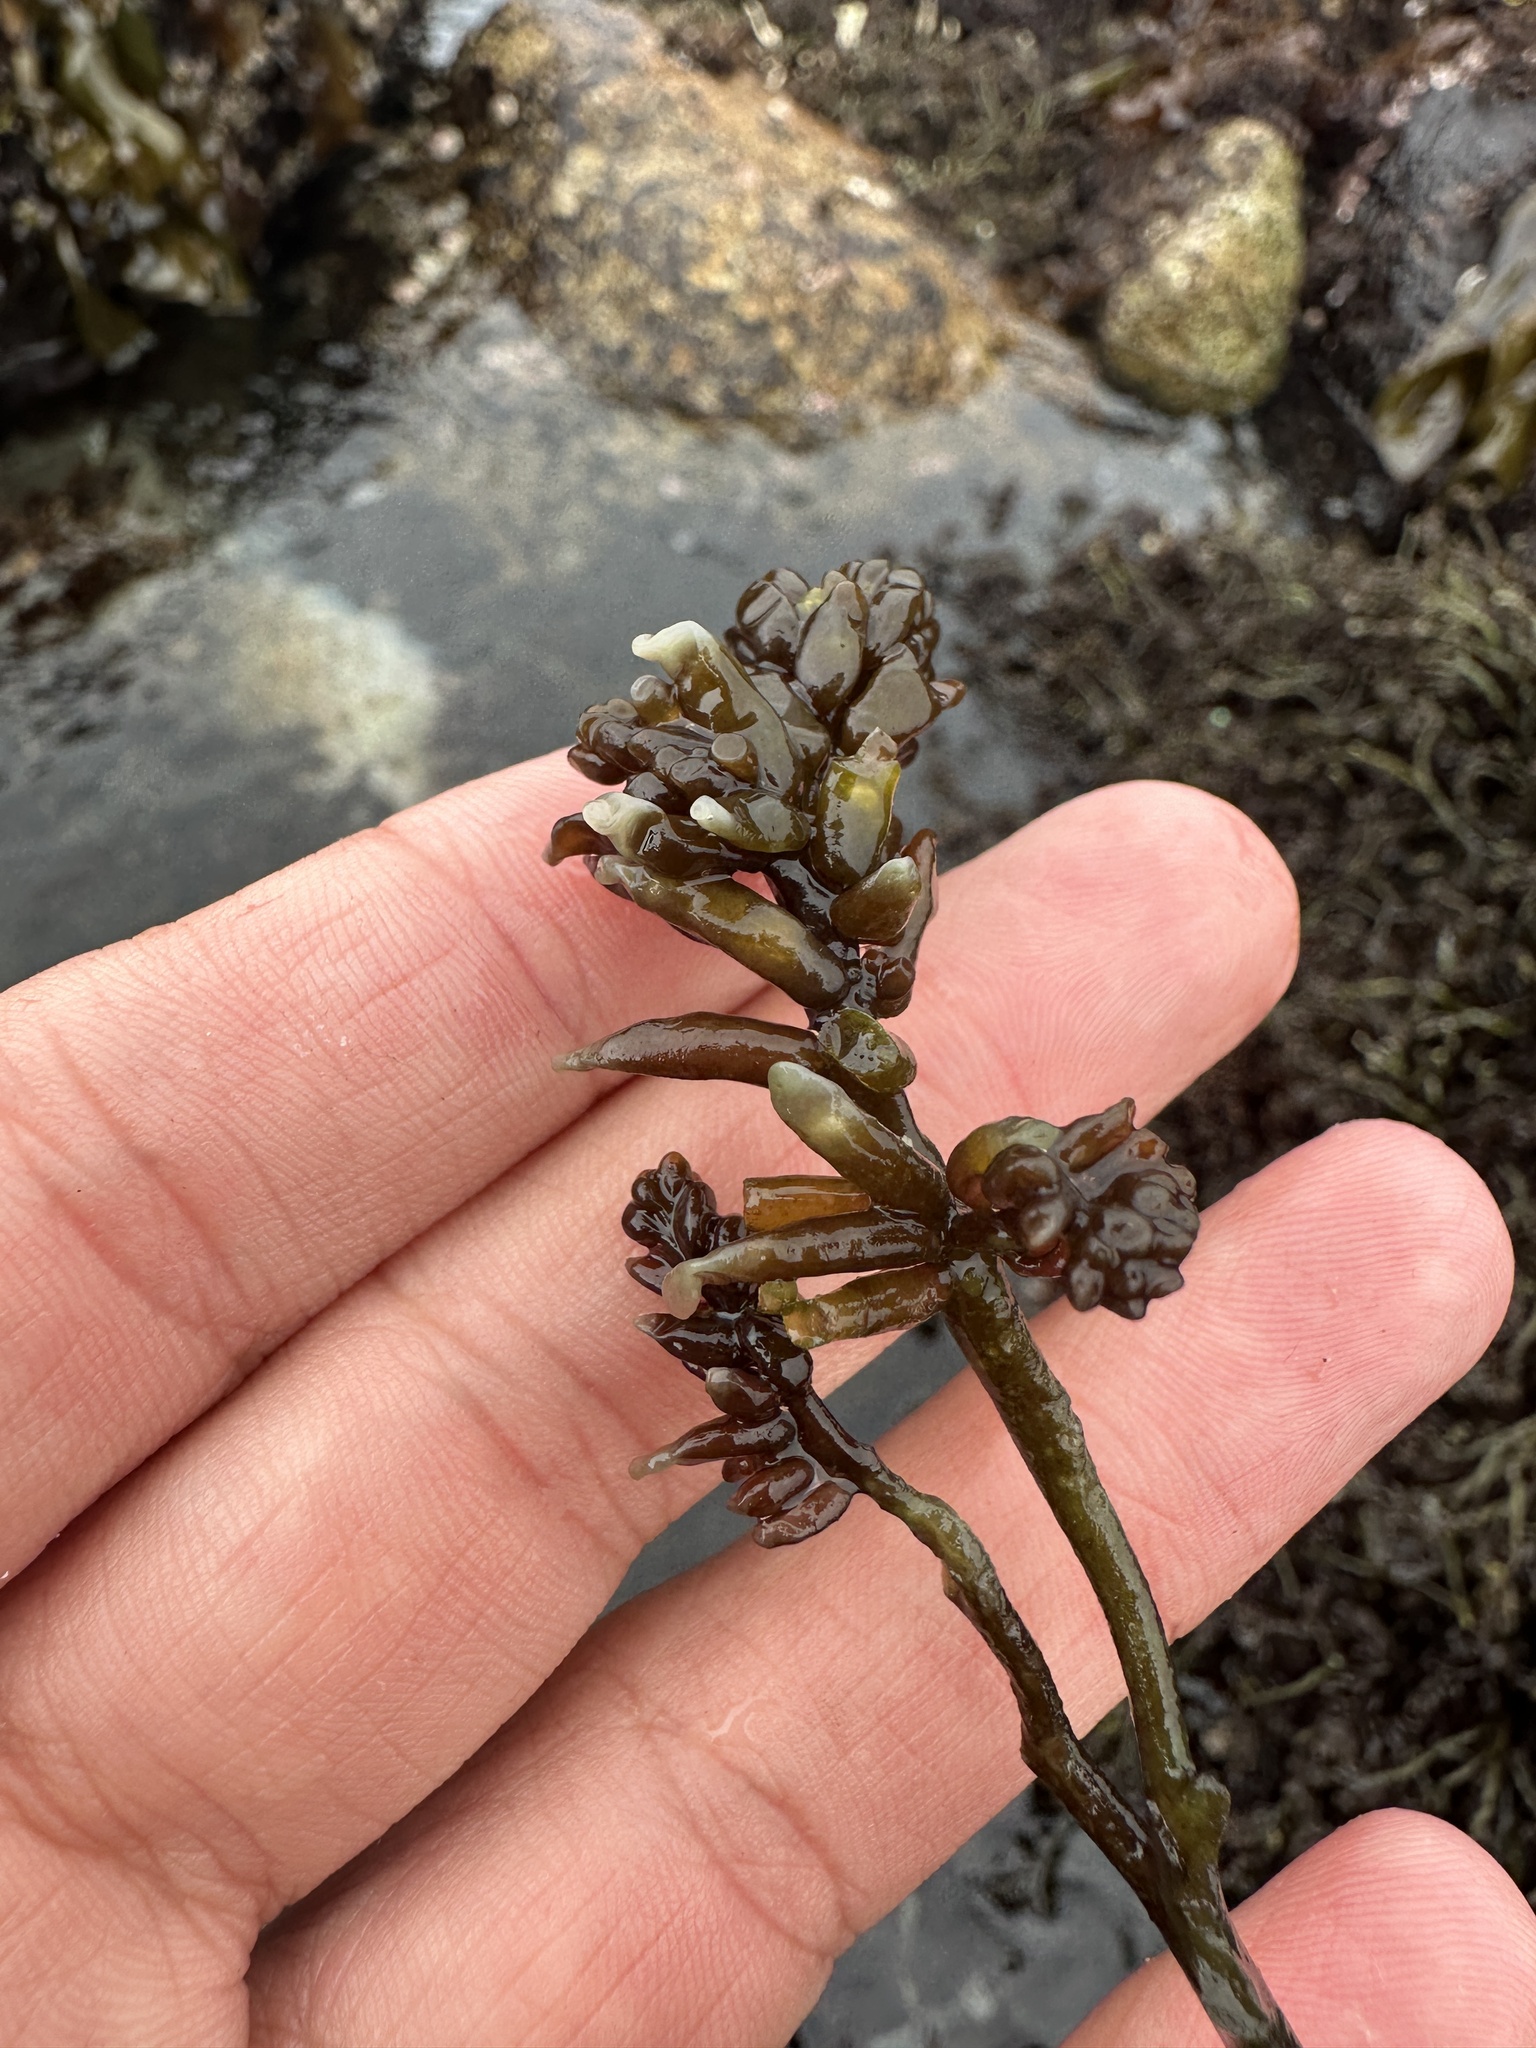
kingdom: Plantae
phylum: Rhodophyta
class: Florideophyceae
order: Rhodymeniales
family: Champiaceae
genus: Neogastroclonium
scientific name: Neogastroclonium subarticulatum
